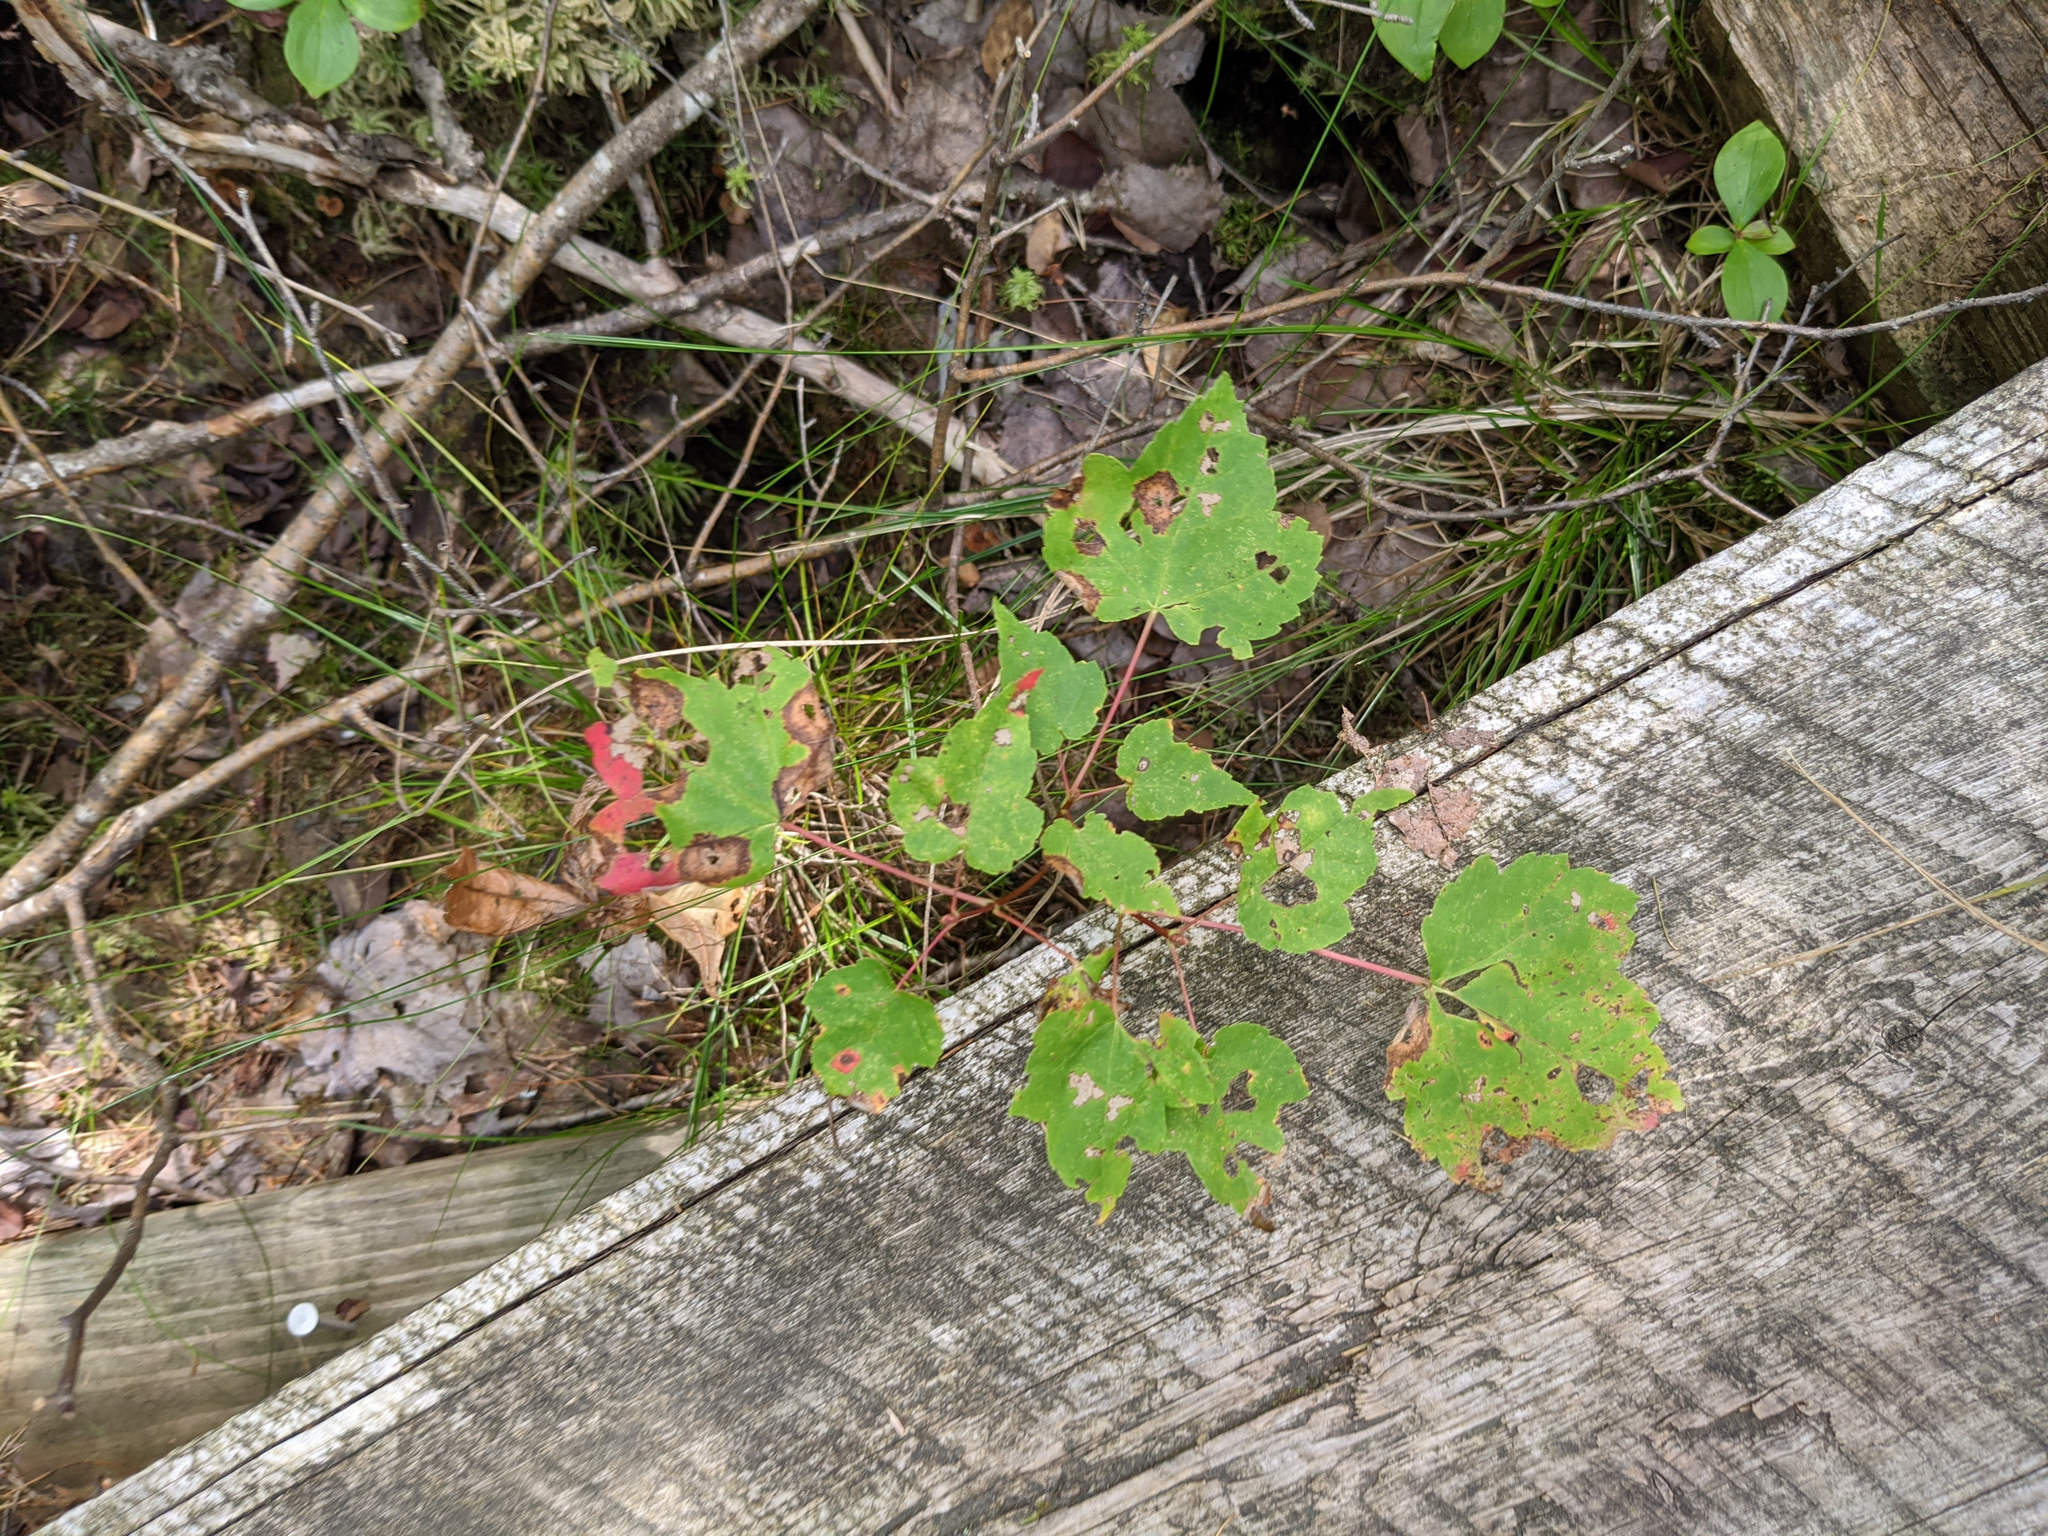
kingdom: Plantae
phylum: Tracheophyta
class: Magnoliopsida
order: Sapindales
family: Sapindaceae
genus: Acer
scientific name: Acer rubrum
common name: Red maple
